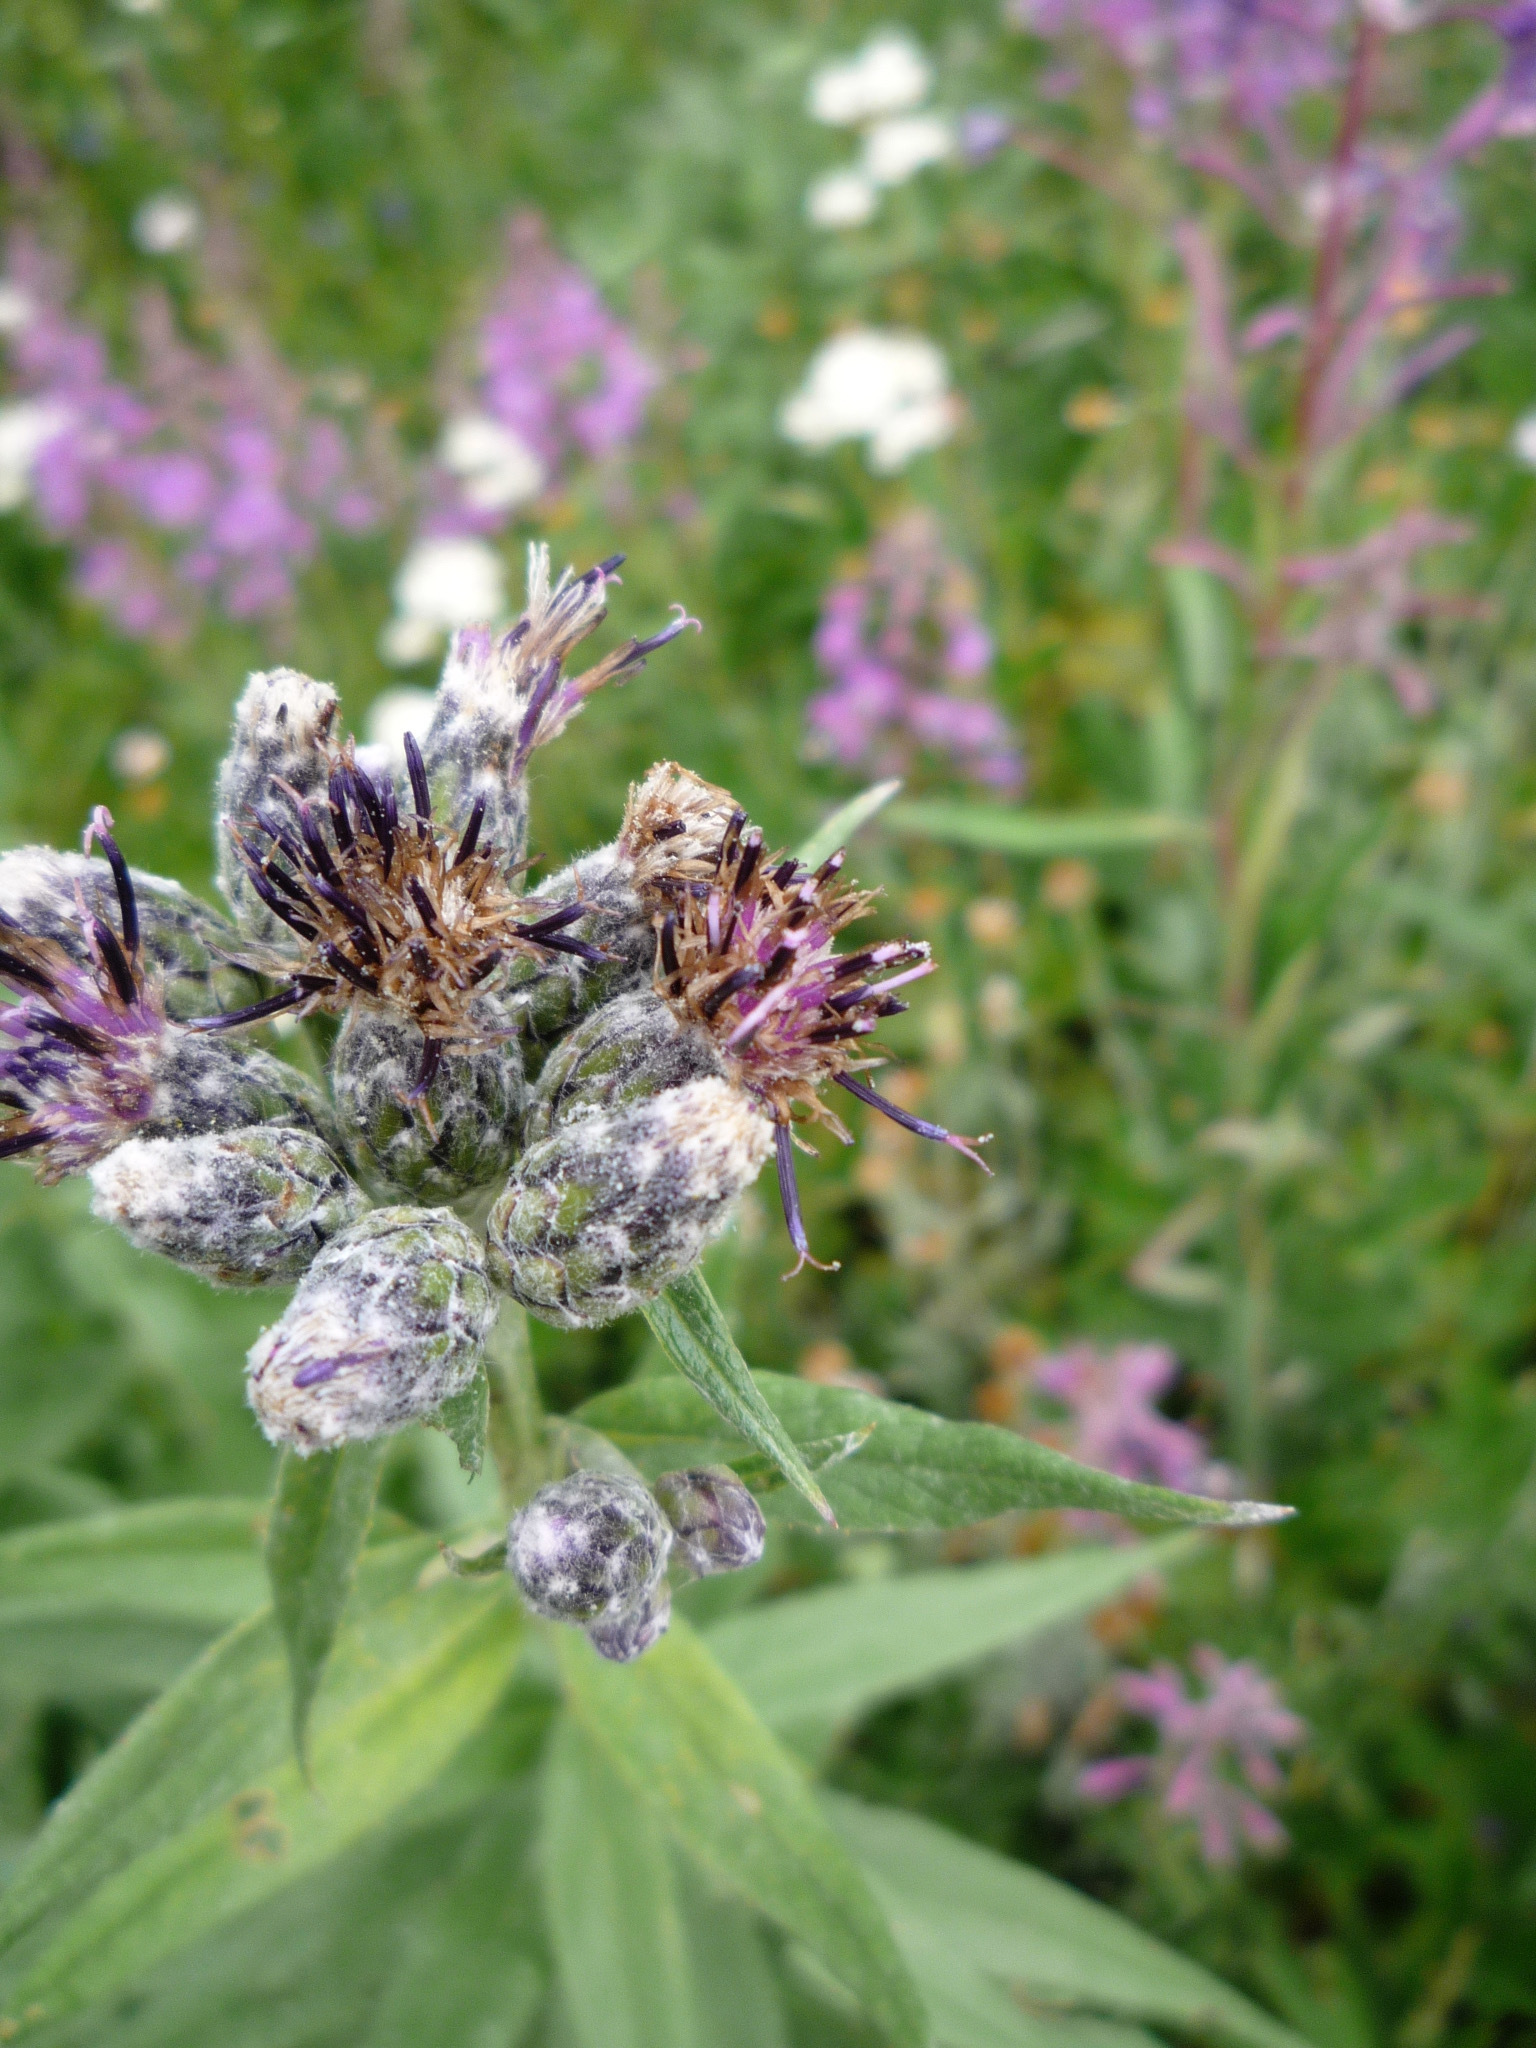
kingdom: Plantae
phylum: Tracheophyta
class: Magnoliopsida
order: Asterales
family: Asteraceae
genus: Saussurea
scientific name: Saussurea americana
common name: American saw-wort
